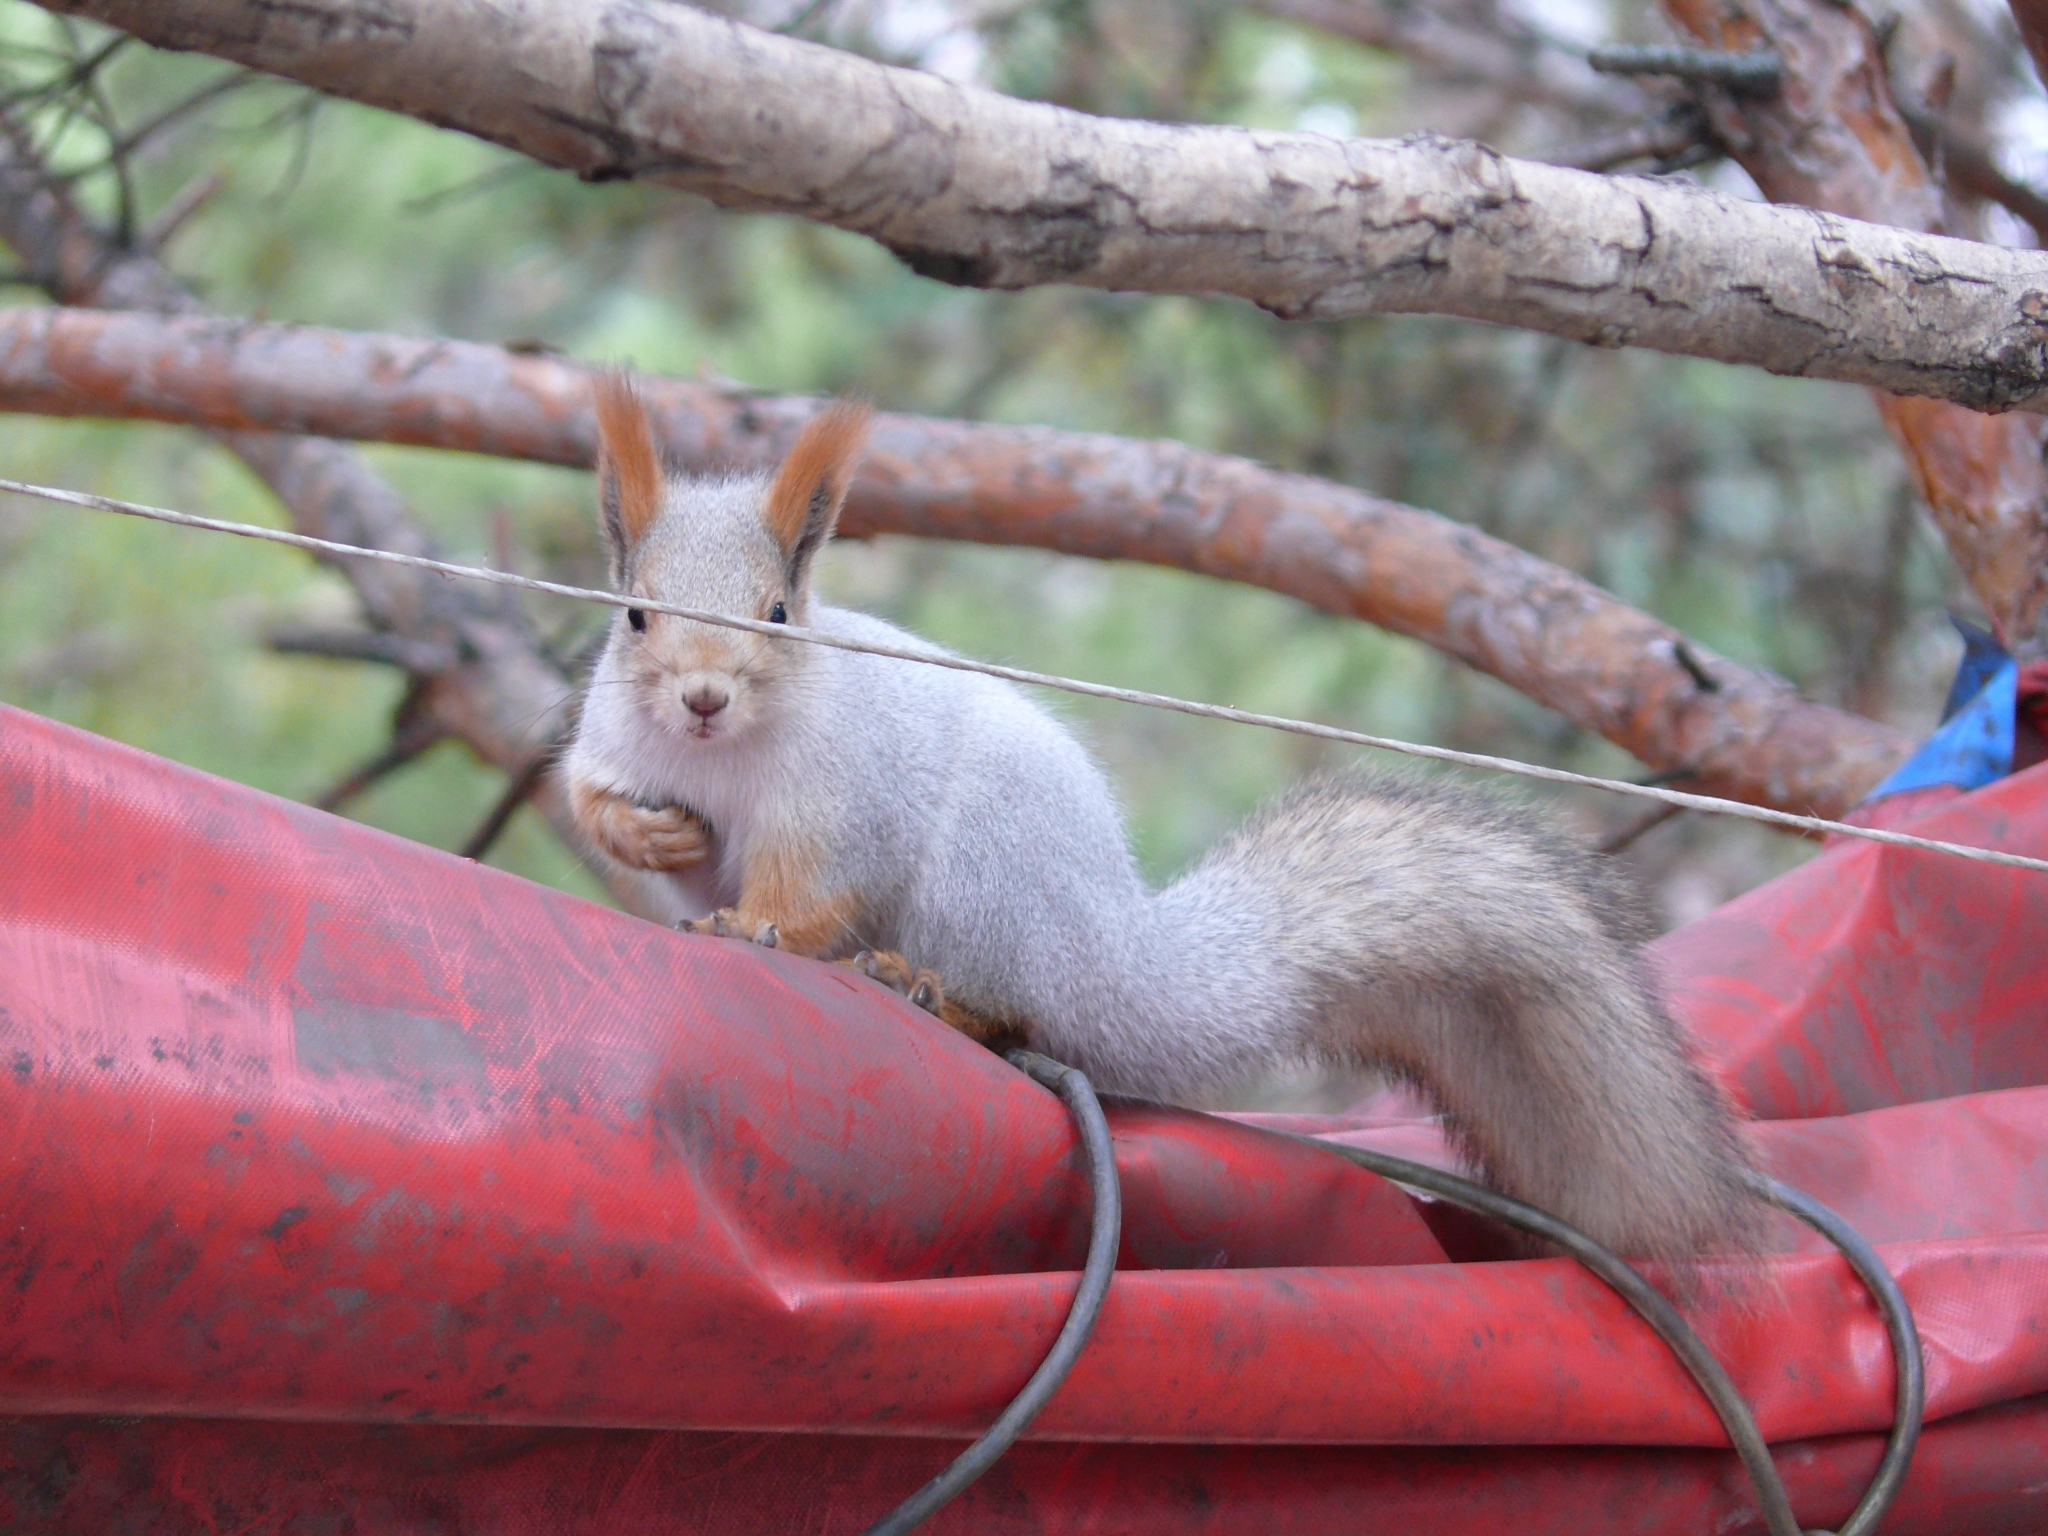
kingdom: Animalia
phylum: Chordata
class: Mammalia
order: Rodentia
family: Sciuridae
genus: Sciurus
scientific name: Sciurus vulgaris
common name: Eurasian red squirrel
